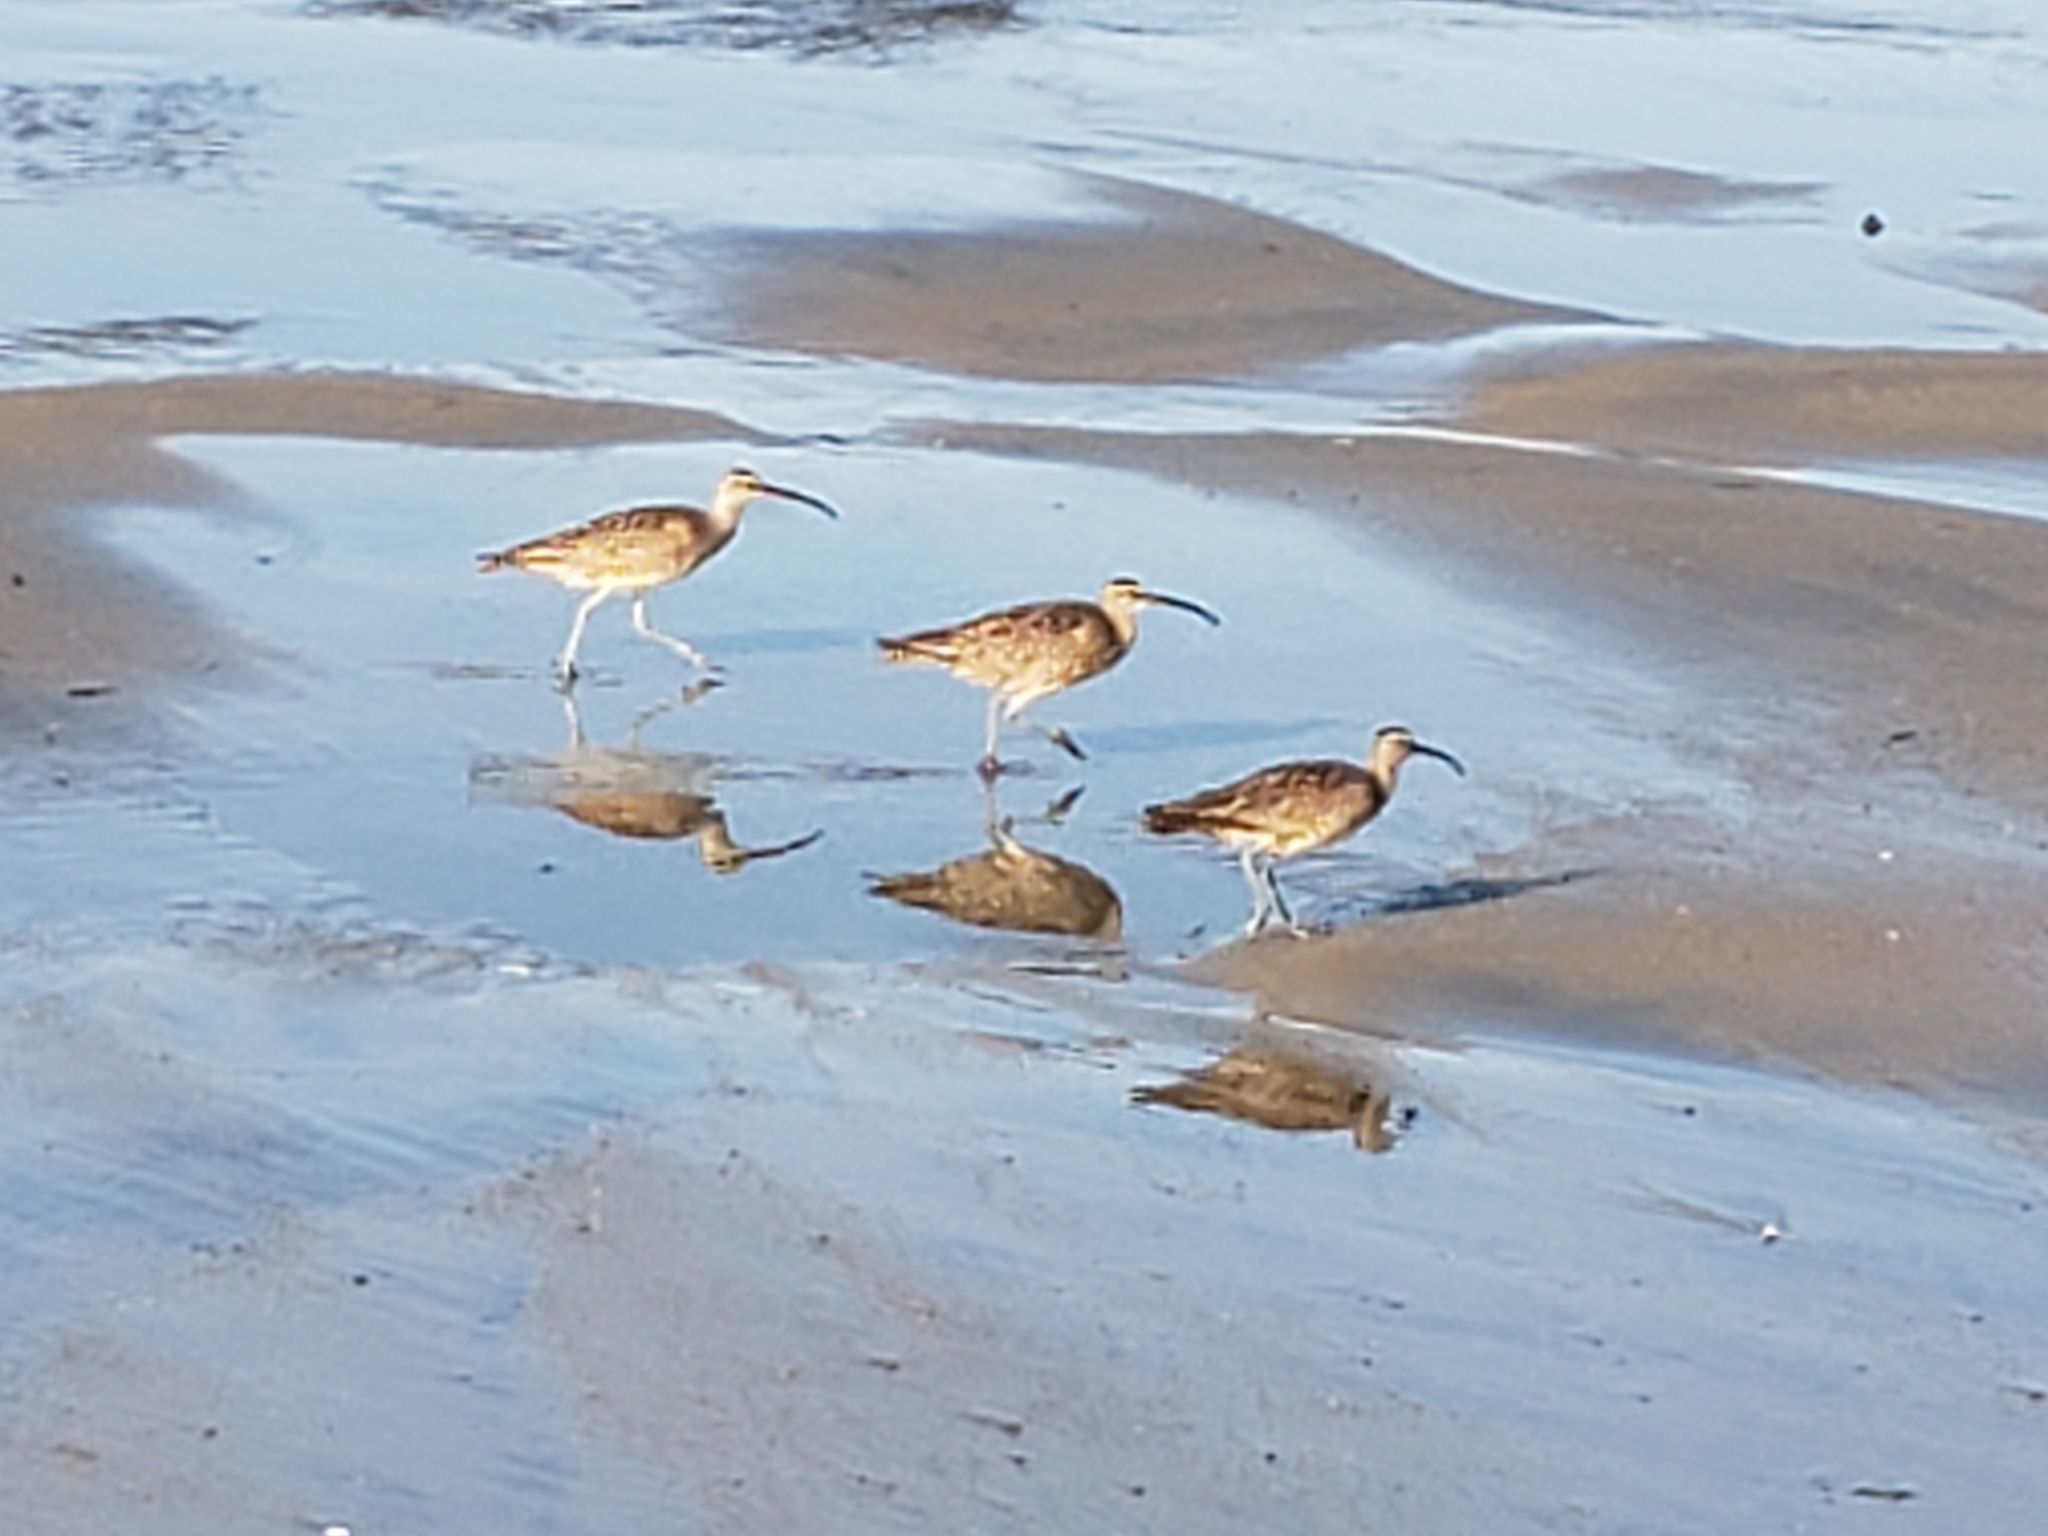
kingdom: Animalia
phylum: Chordata
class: Aves
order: Charadriiformes
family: Scolopacidae
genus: Numenius
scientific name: Numenius phaeopus
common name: Whimbrel
